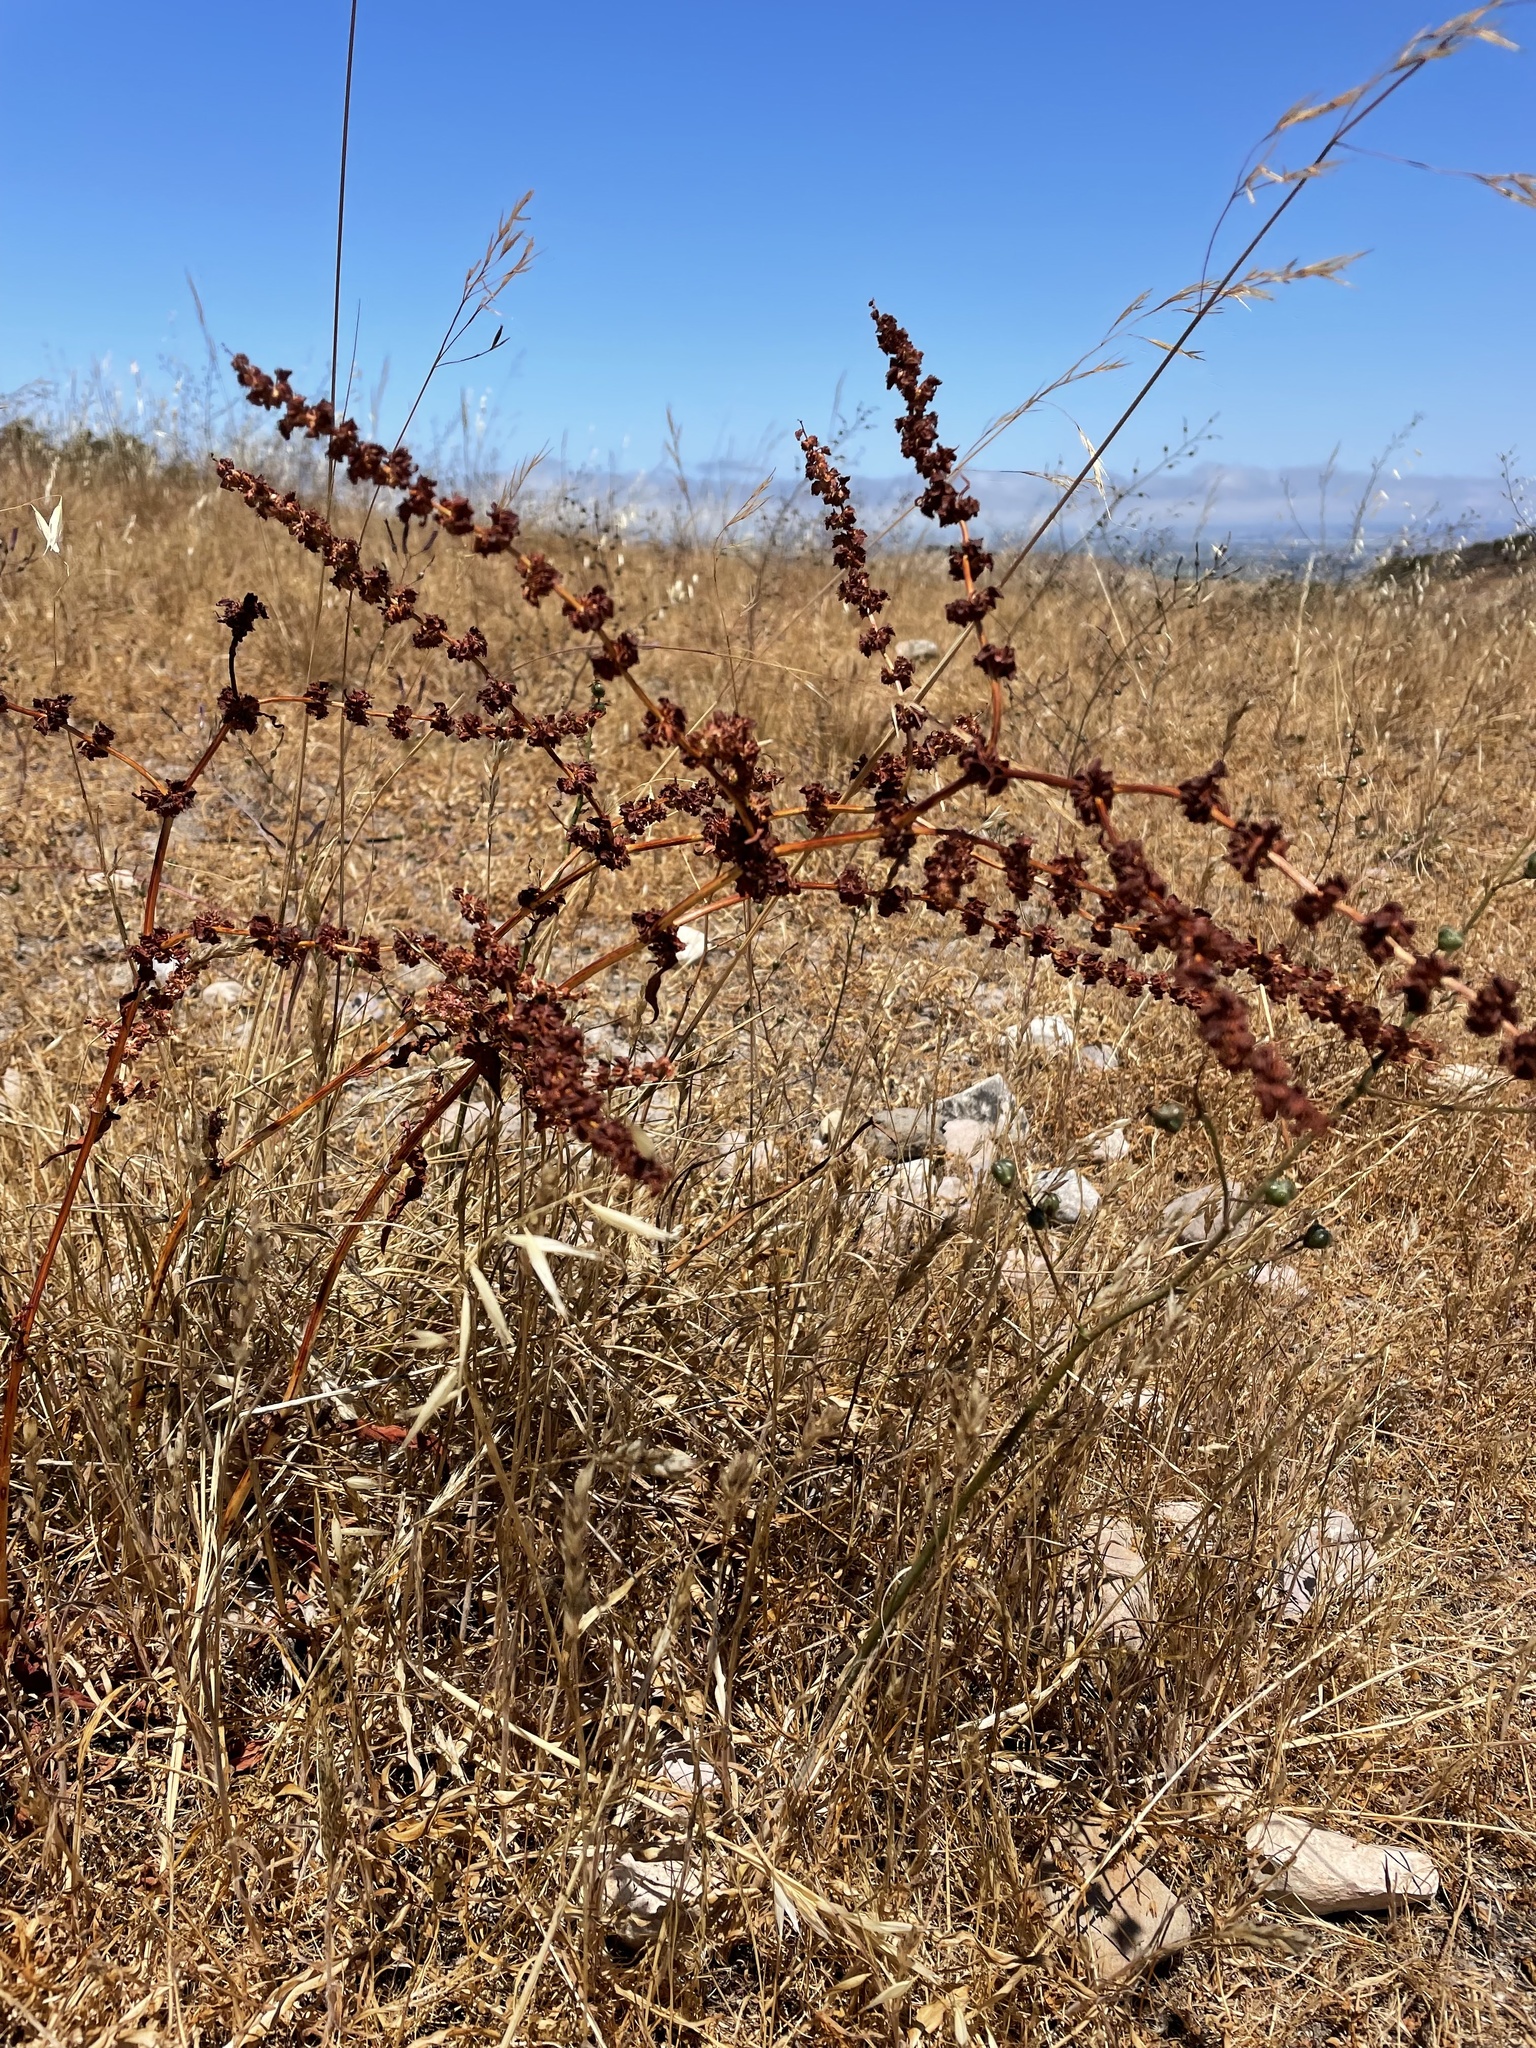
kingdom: Plantae
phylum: Tracheophyta
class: Magnoliopsida
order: Caryophyllales
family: Polygonaceae
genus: Rumex
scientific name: Rumex pulcher
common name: Fiddle dock
